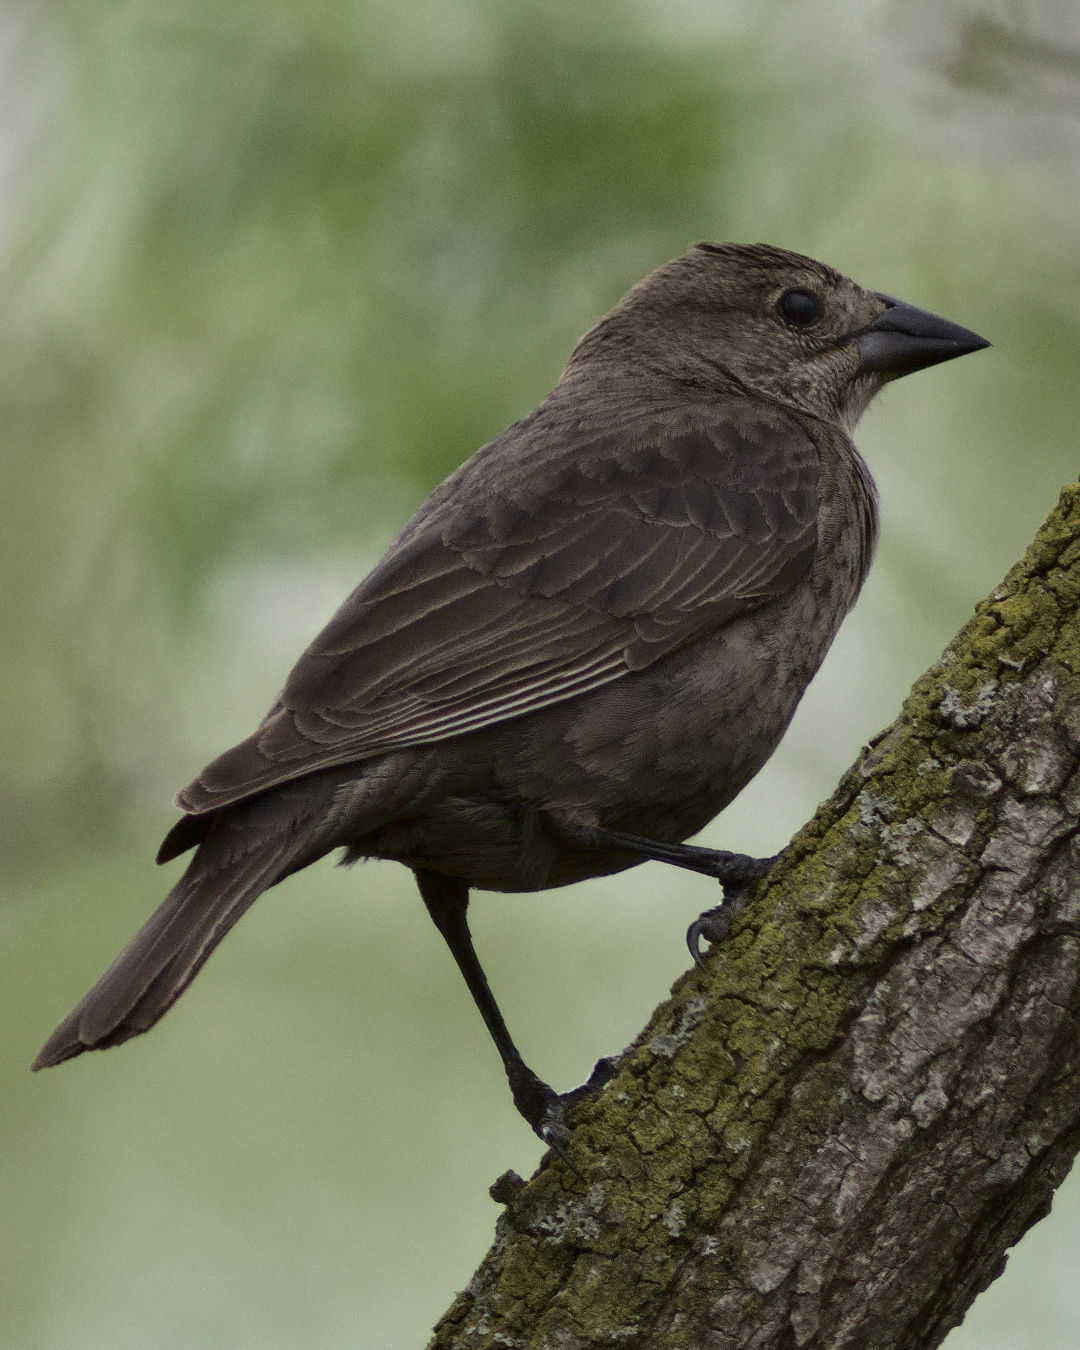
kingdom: Animalia
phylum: Chordata
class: Aves
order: Passeriformes
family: Icteridae
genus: Molothrus
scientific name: Molothrus ater
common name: Brown-headed cowbird
